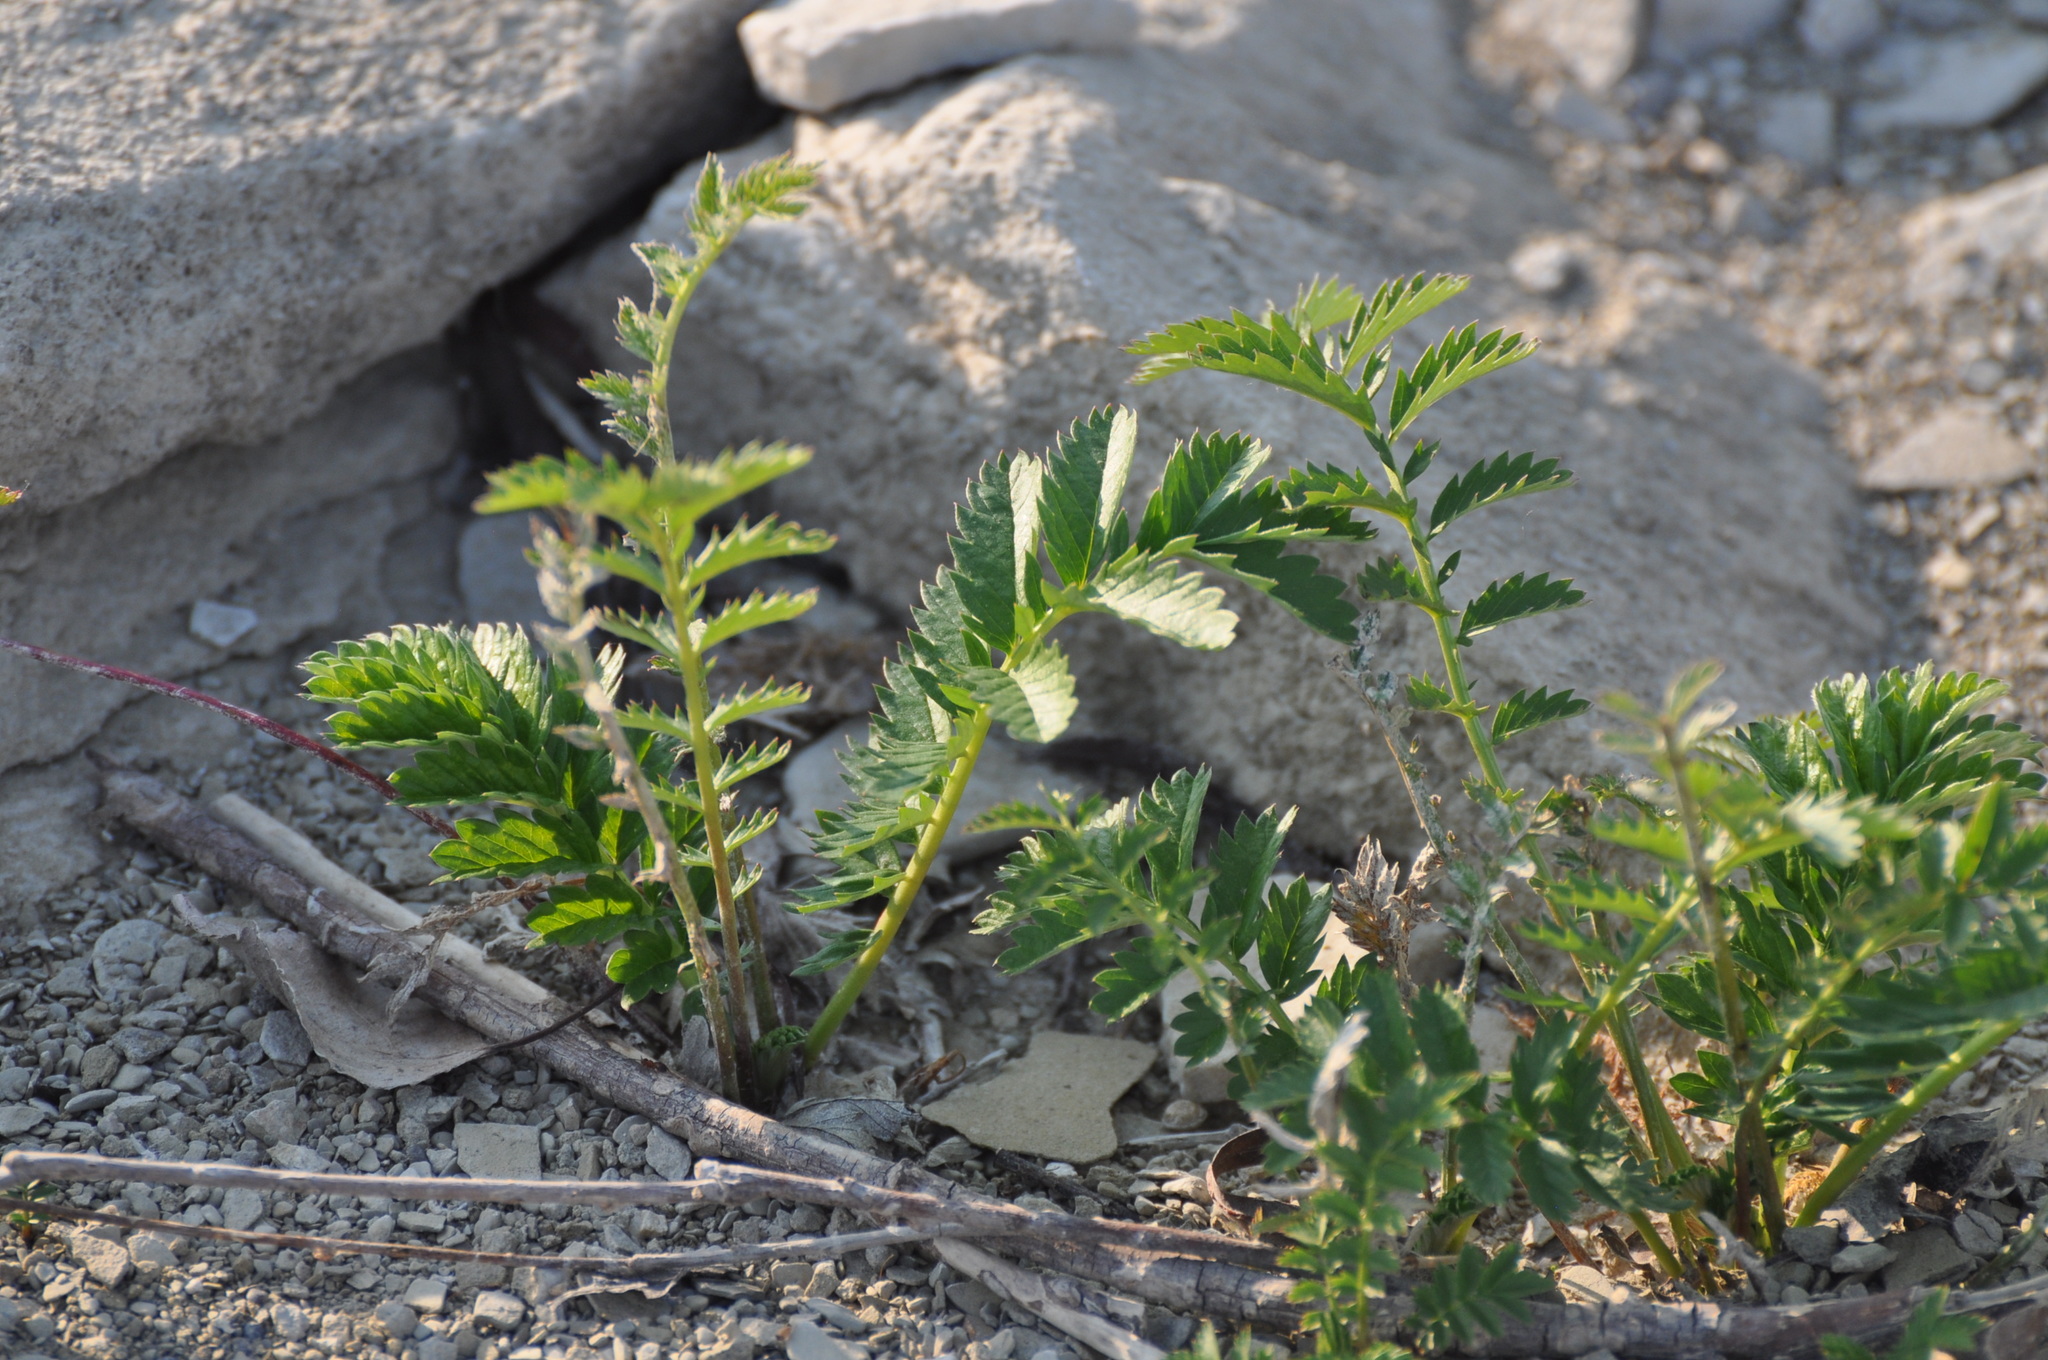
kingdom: Plantae
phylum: Tracheophyta
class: Magnoliopsida
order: Rosales
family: Rosaceae
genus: Argentina
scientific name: Argentina anserina
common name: Common silverweed
